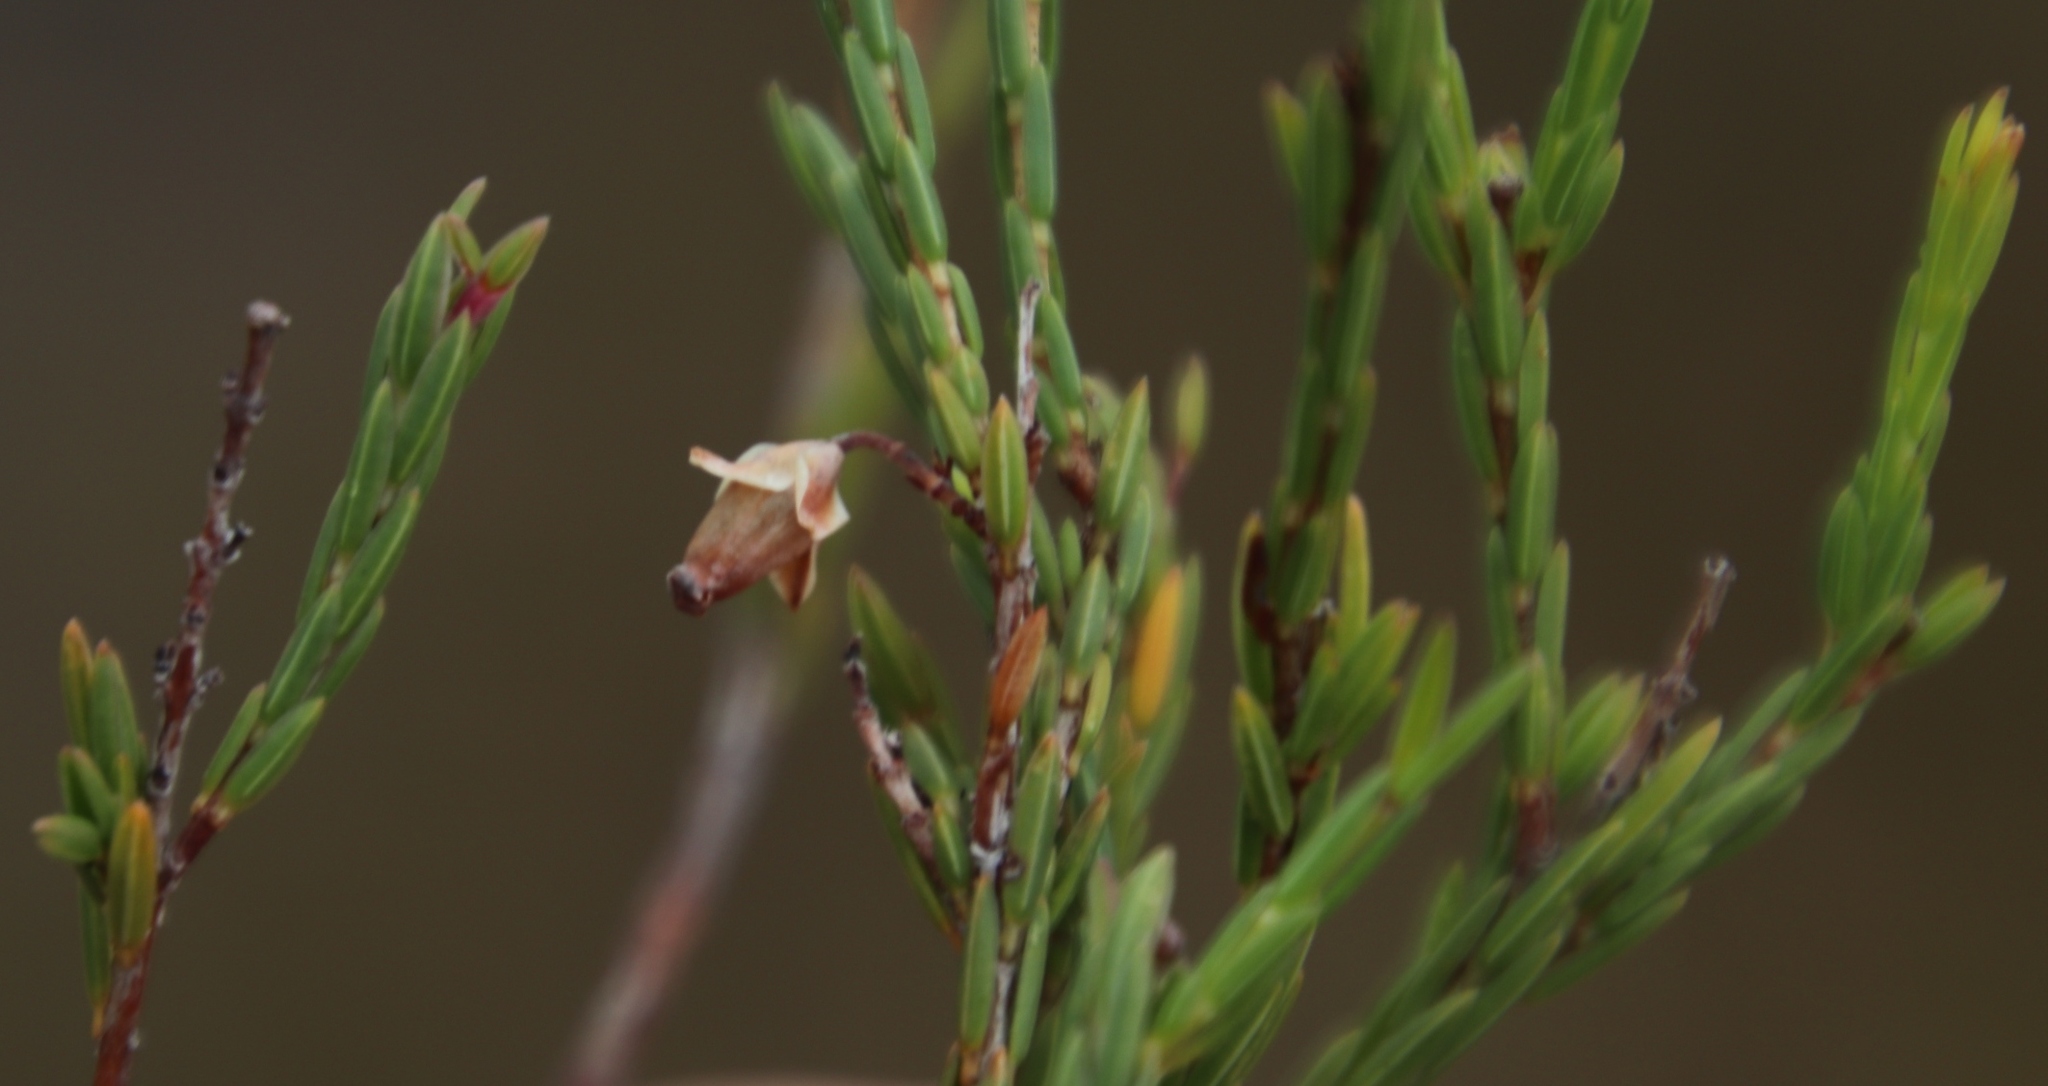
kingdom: Plantae
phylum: Tracheophyta
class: Magnoliopsida
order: Ericales
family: Ericaceae
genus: Erica
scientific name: Erica corifolia
